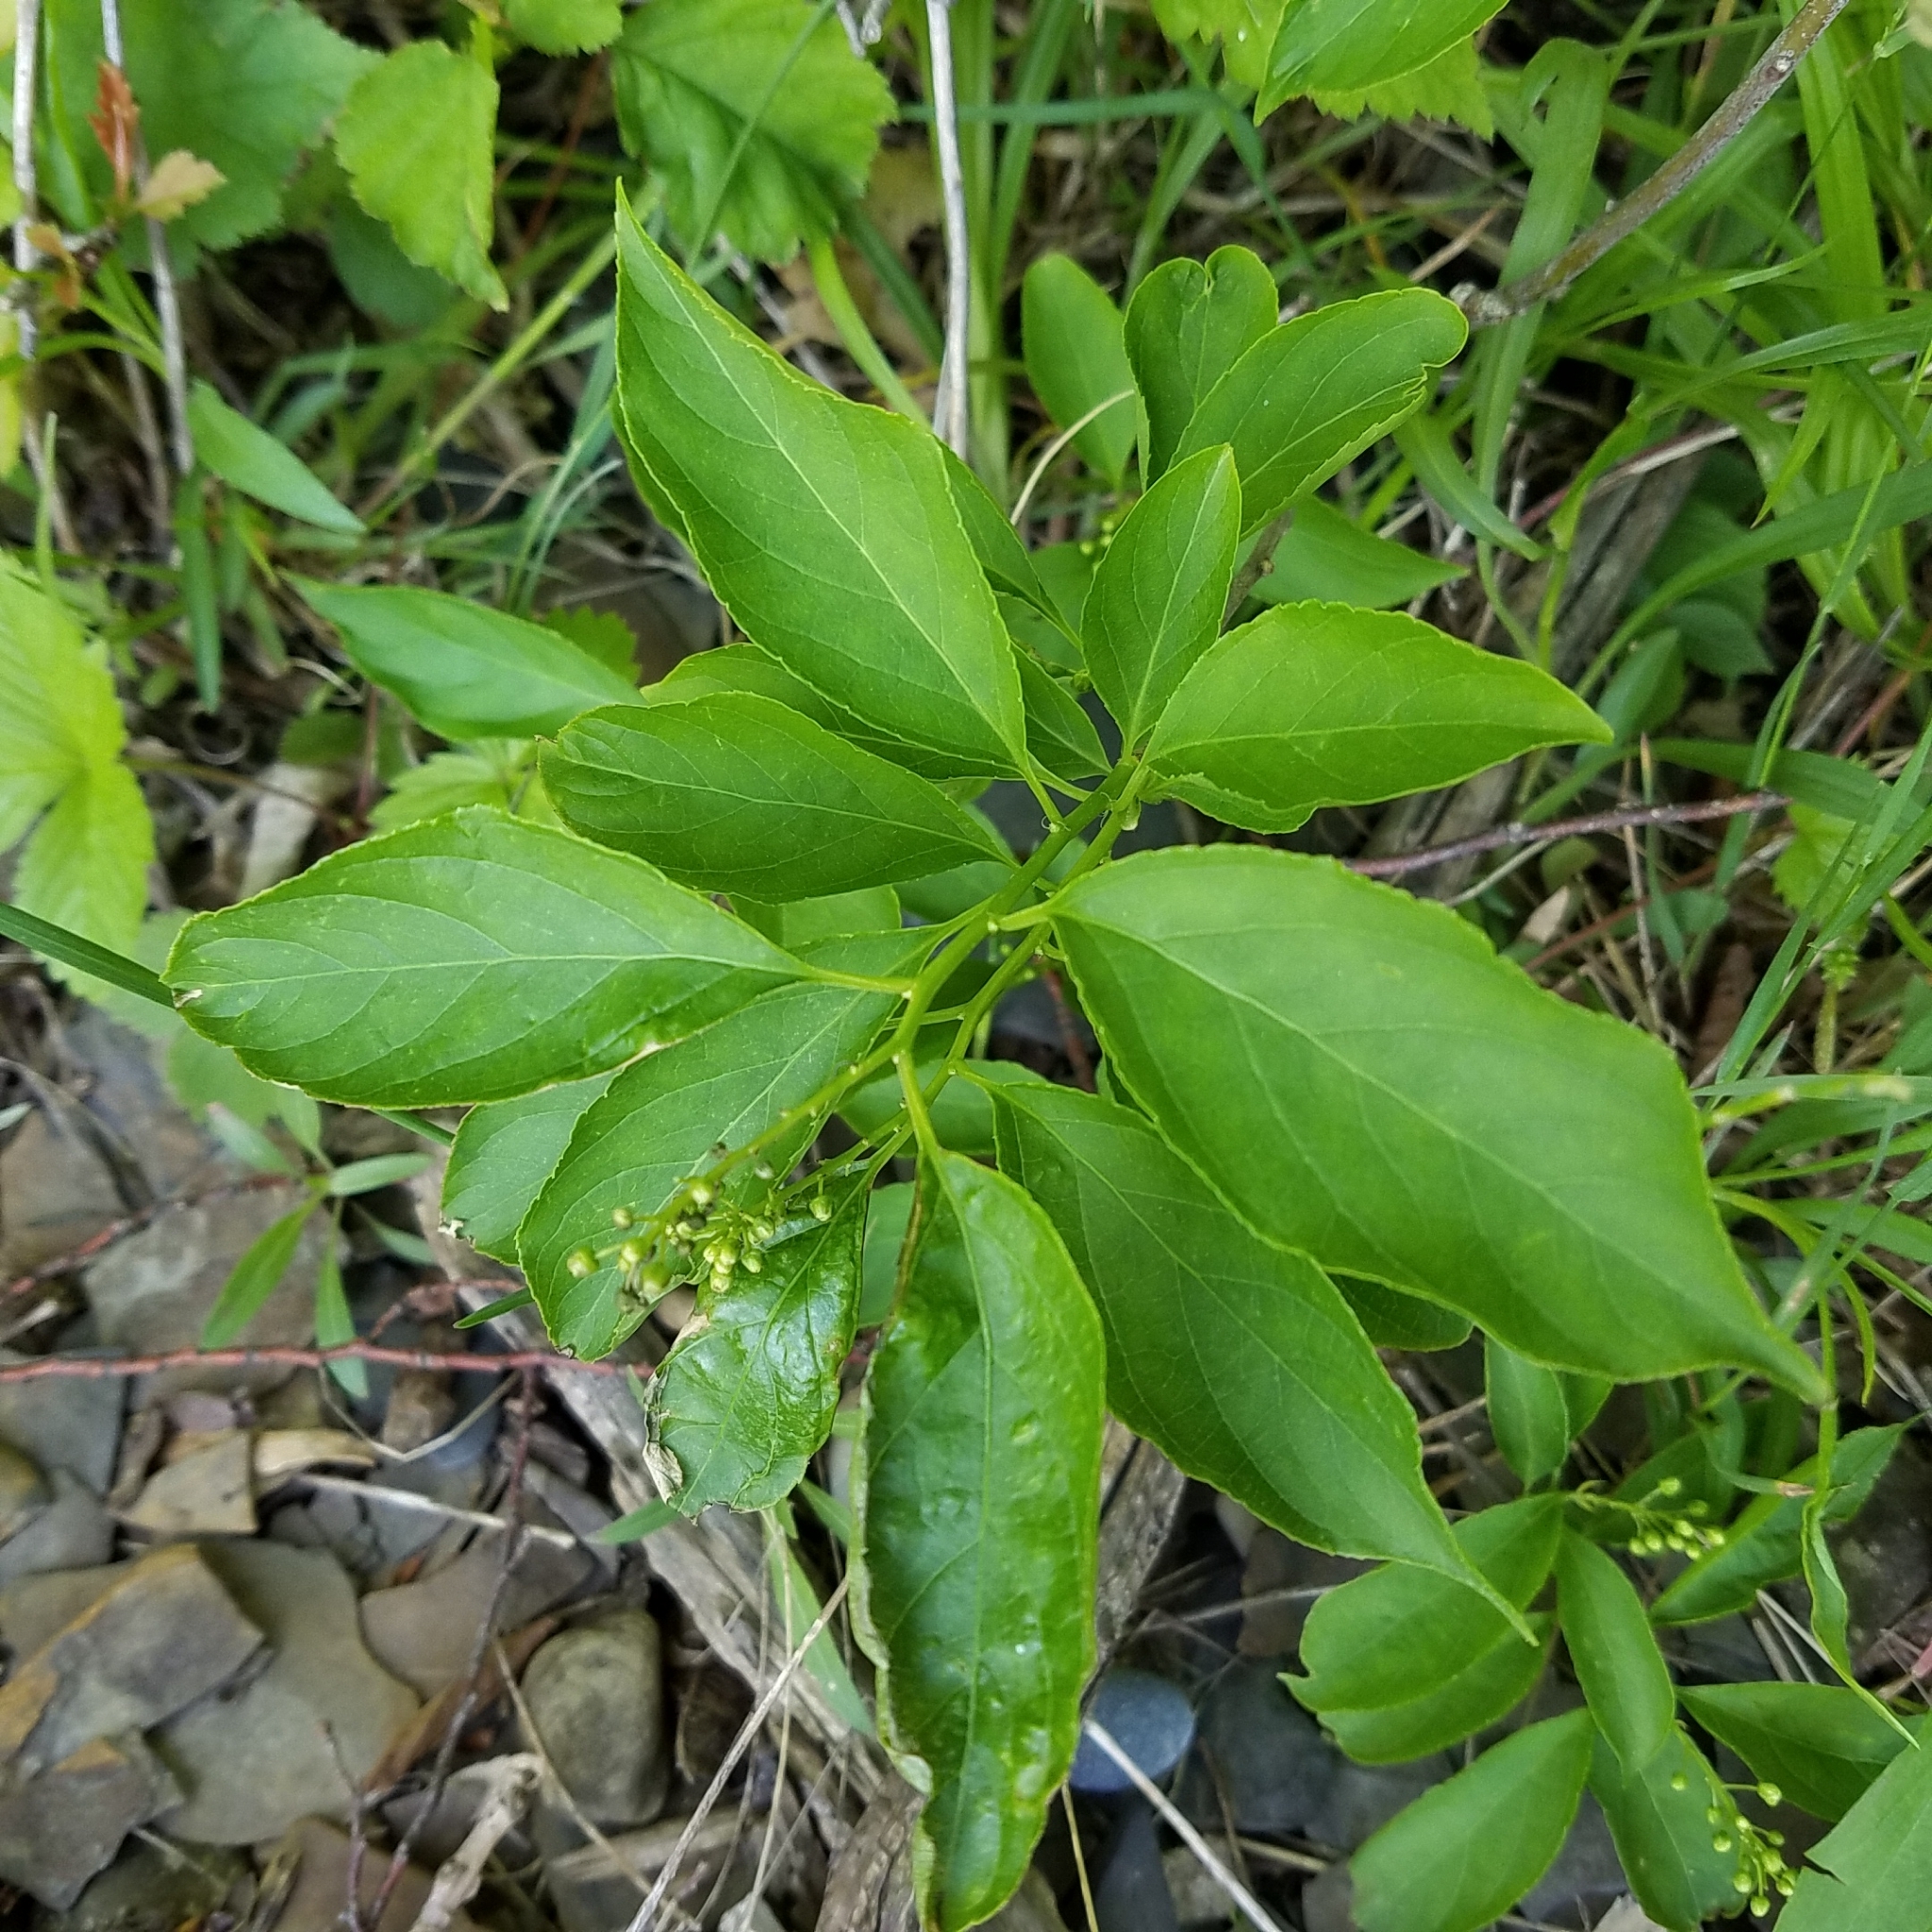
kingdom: Plantae
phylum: Tracheophyta
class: Magnoliopsida
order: Celastrales
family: Celastraceae
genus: Celastrus
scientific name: Celastrus scandens
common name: American bittersweet
